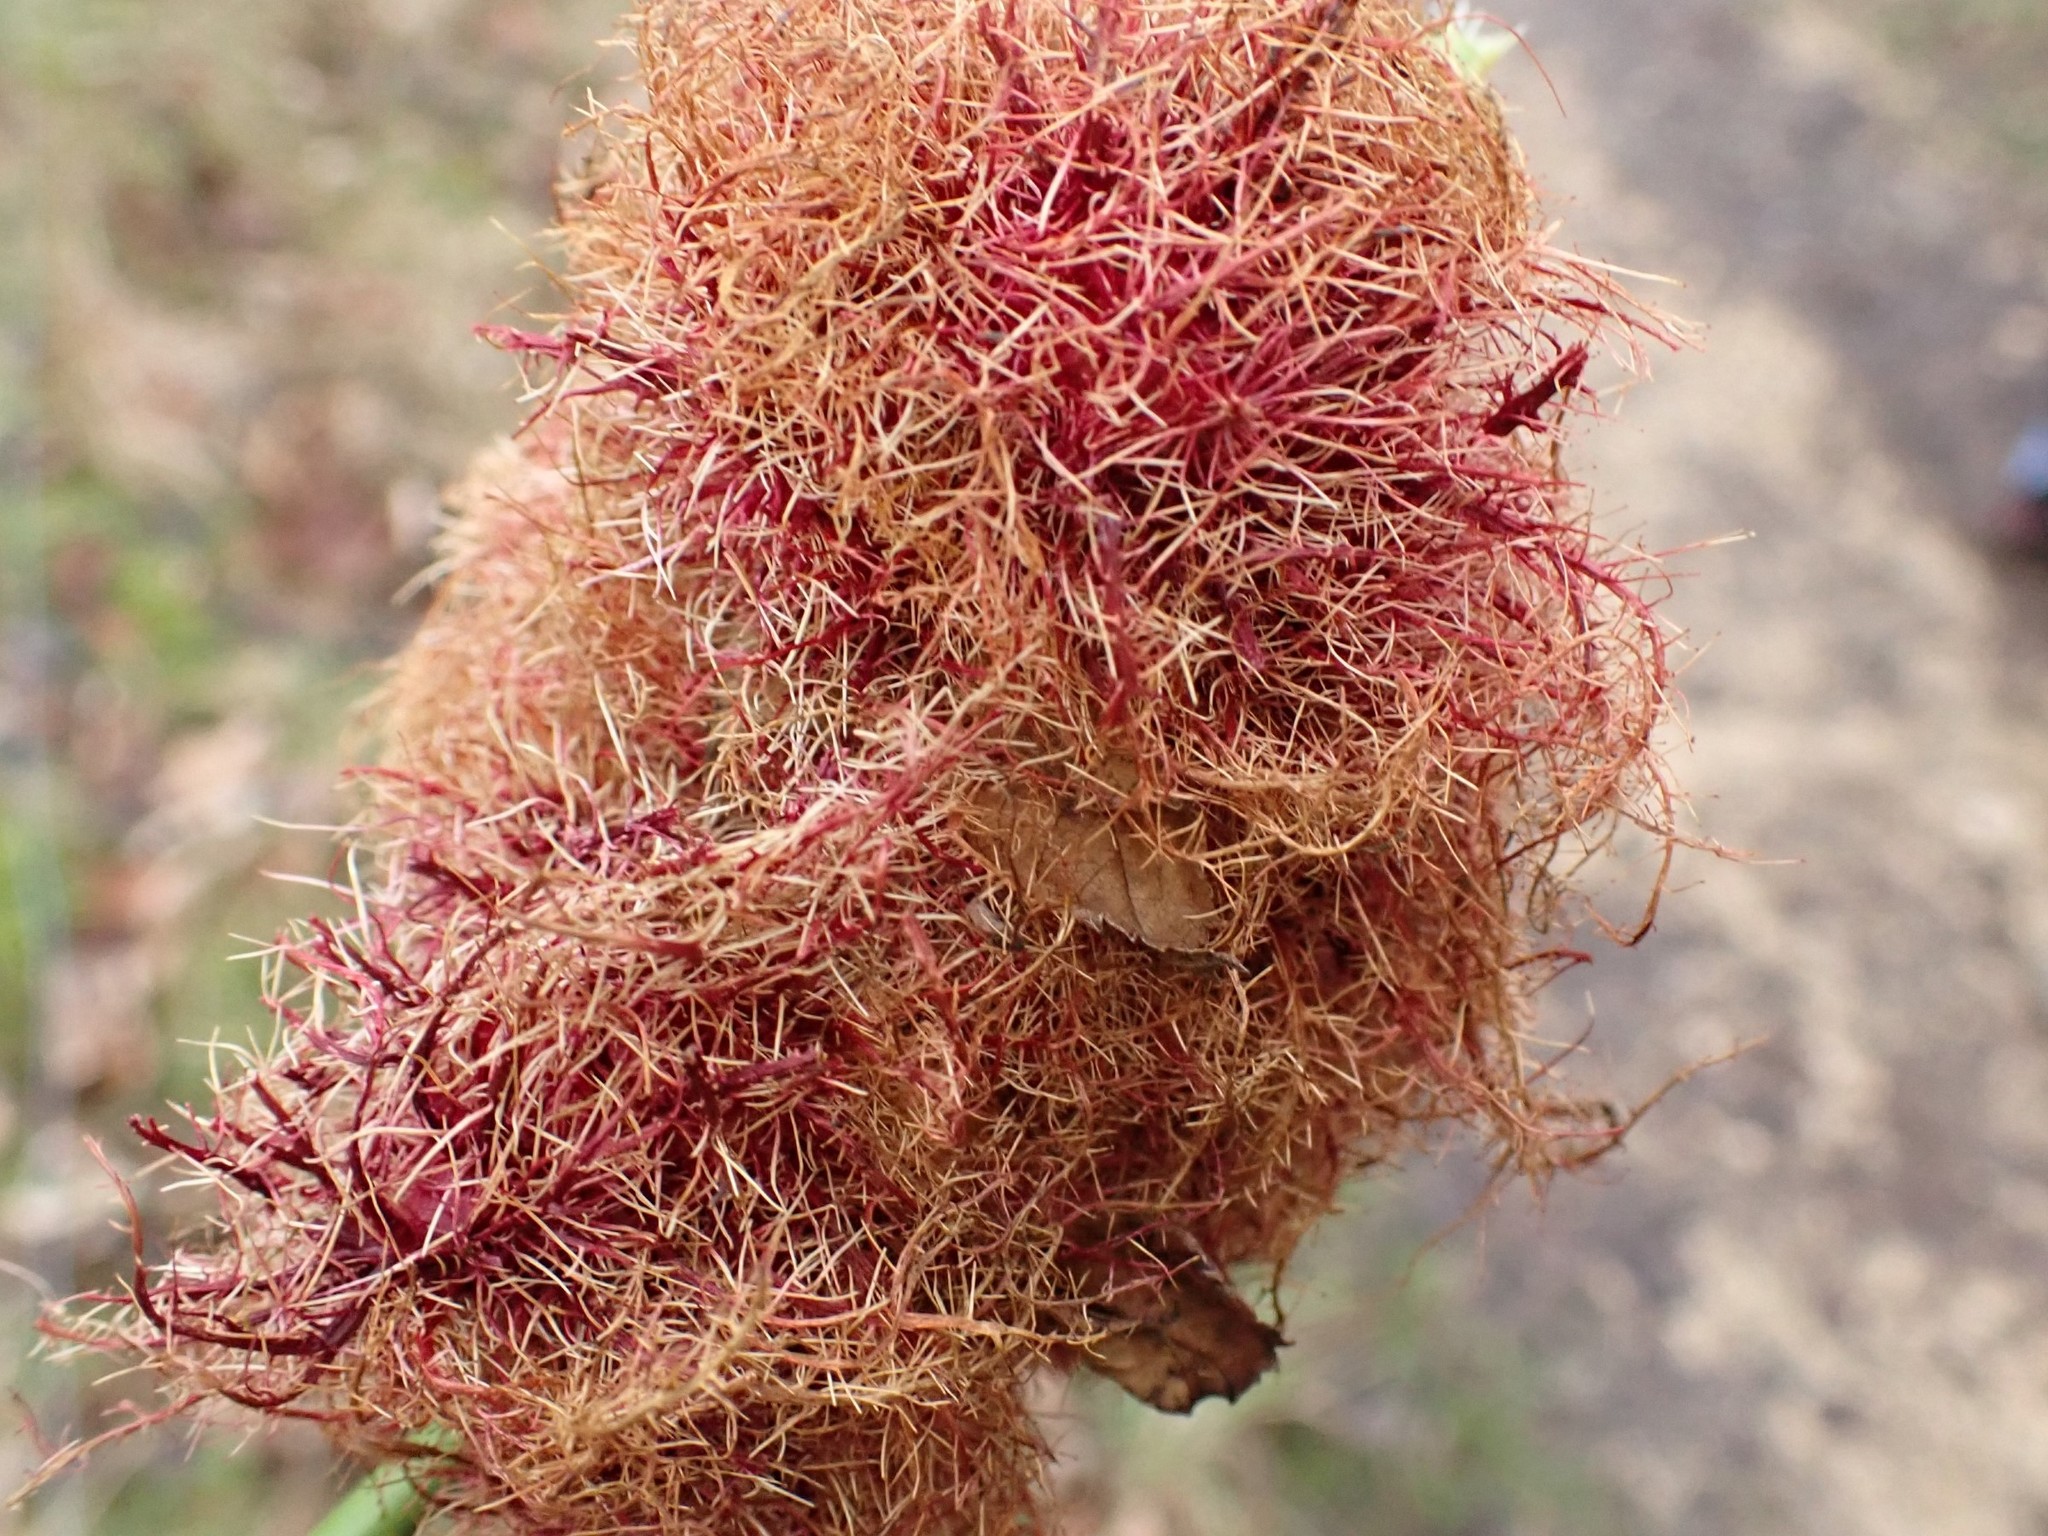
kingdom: Animalia
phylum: Arthropoda
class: Insecta
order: Hymenoptera
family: Cynipidae
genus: Diplolepis
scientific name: Diplolepis rosae
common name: Bedeguar gall
